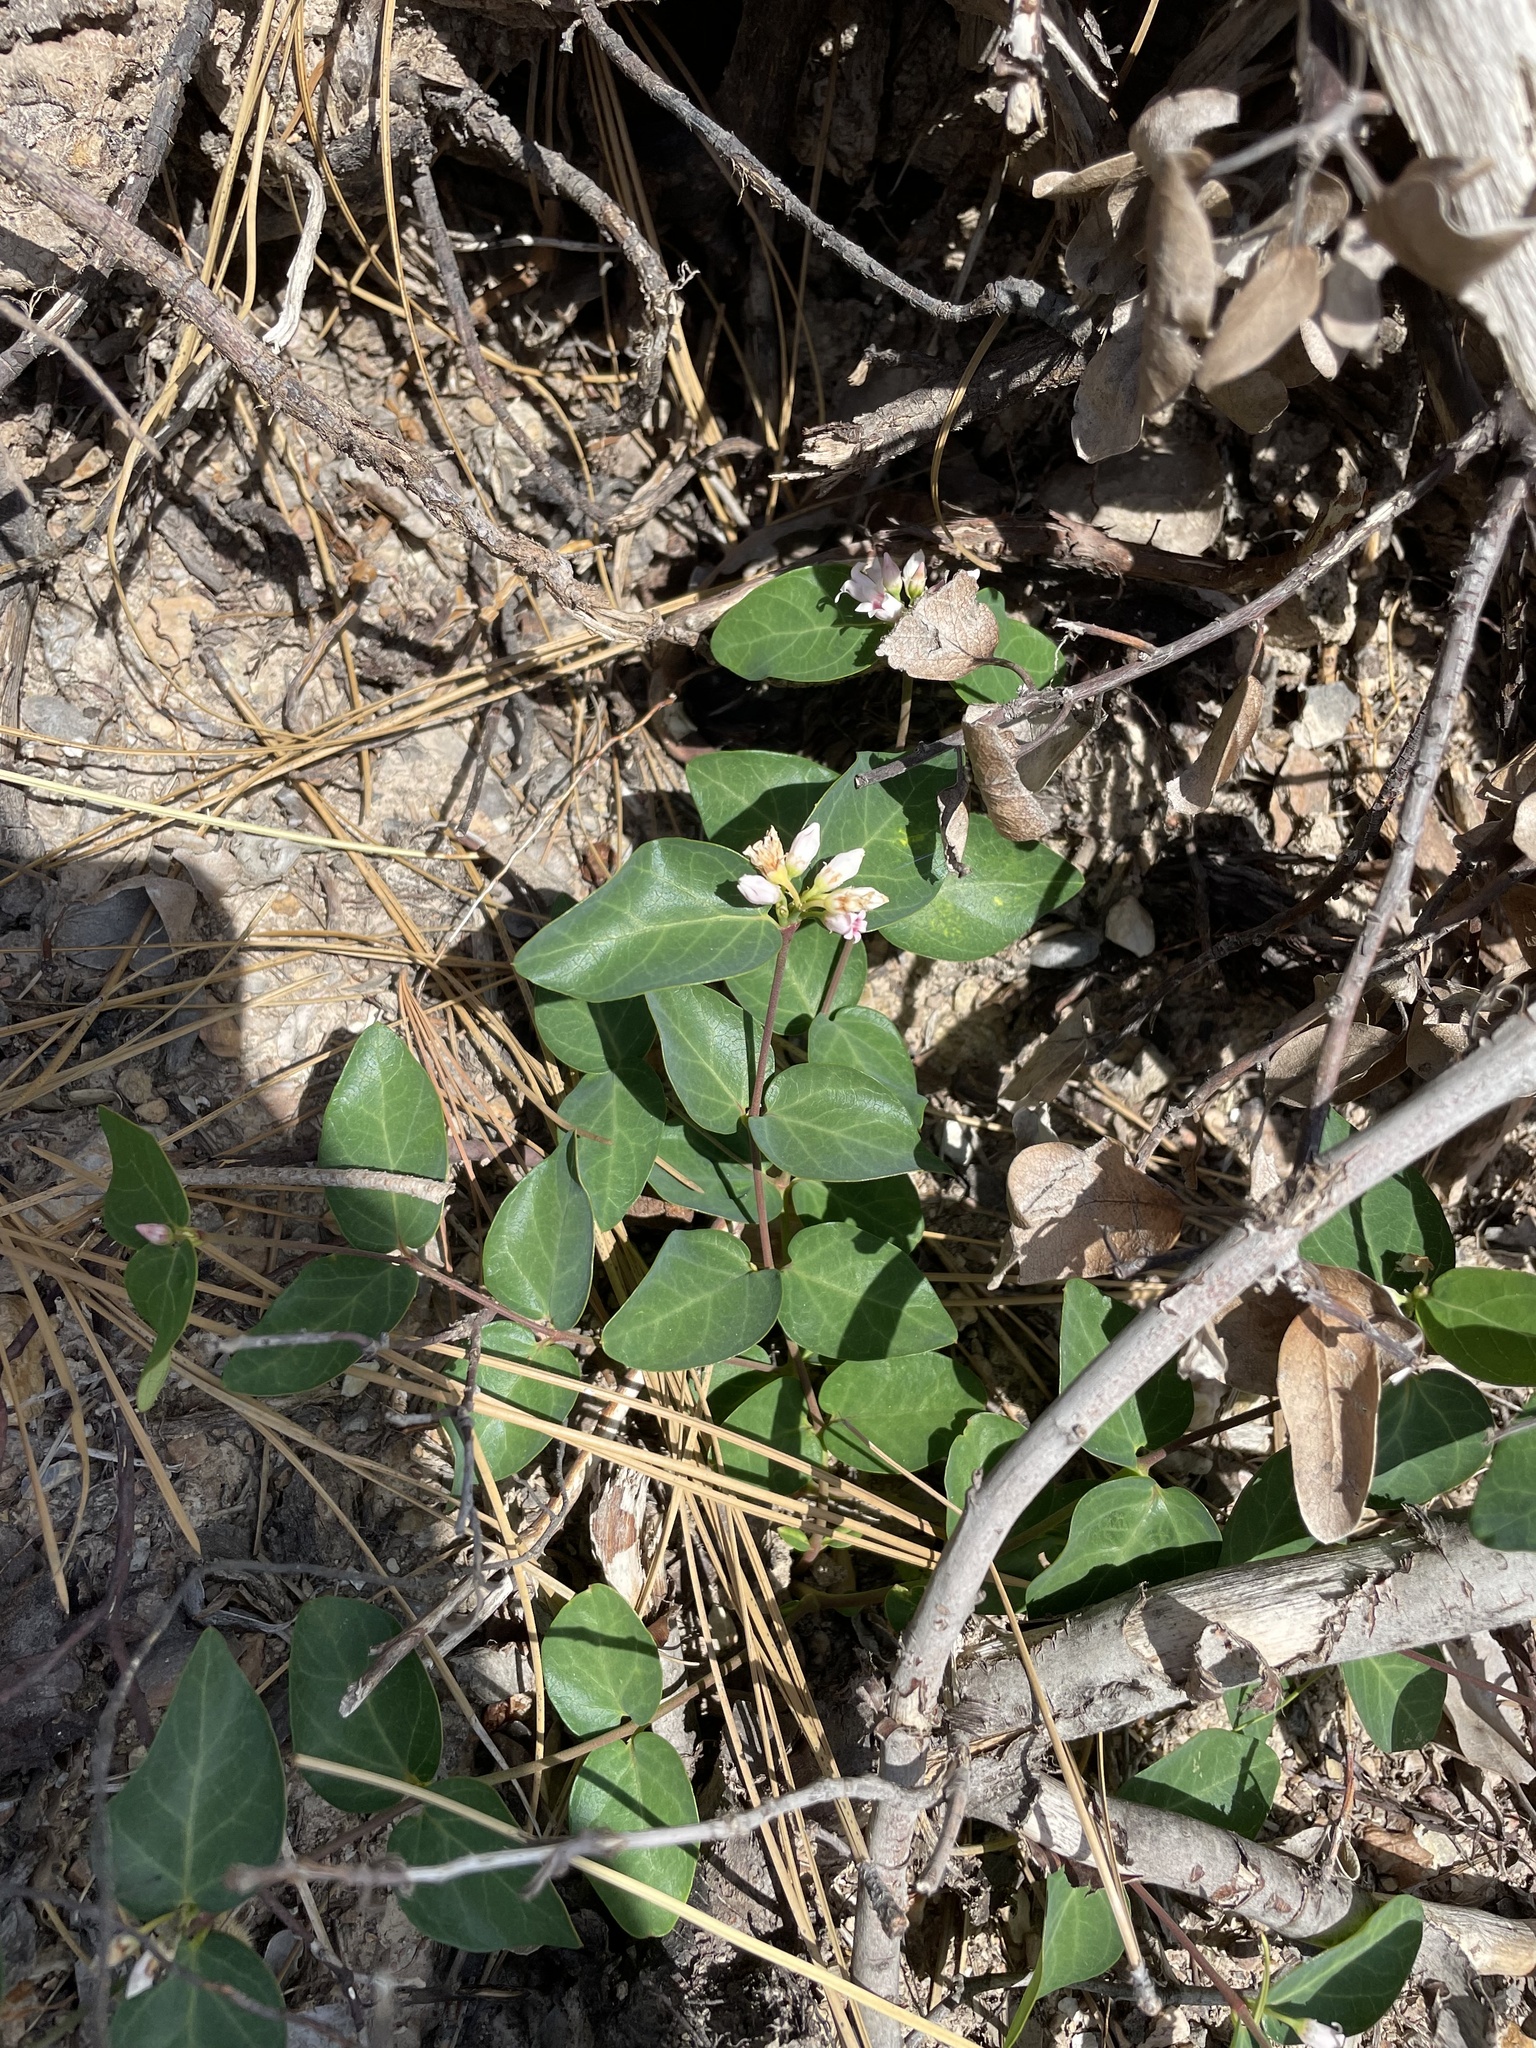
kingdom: Plantae
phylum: Tracheophyta
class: Magnoliopsida
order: Gentianales
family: Apocynaceae
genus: Apocynum
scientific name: Apocynum androsaemifolium
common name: Spreading dogbane
